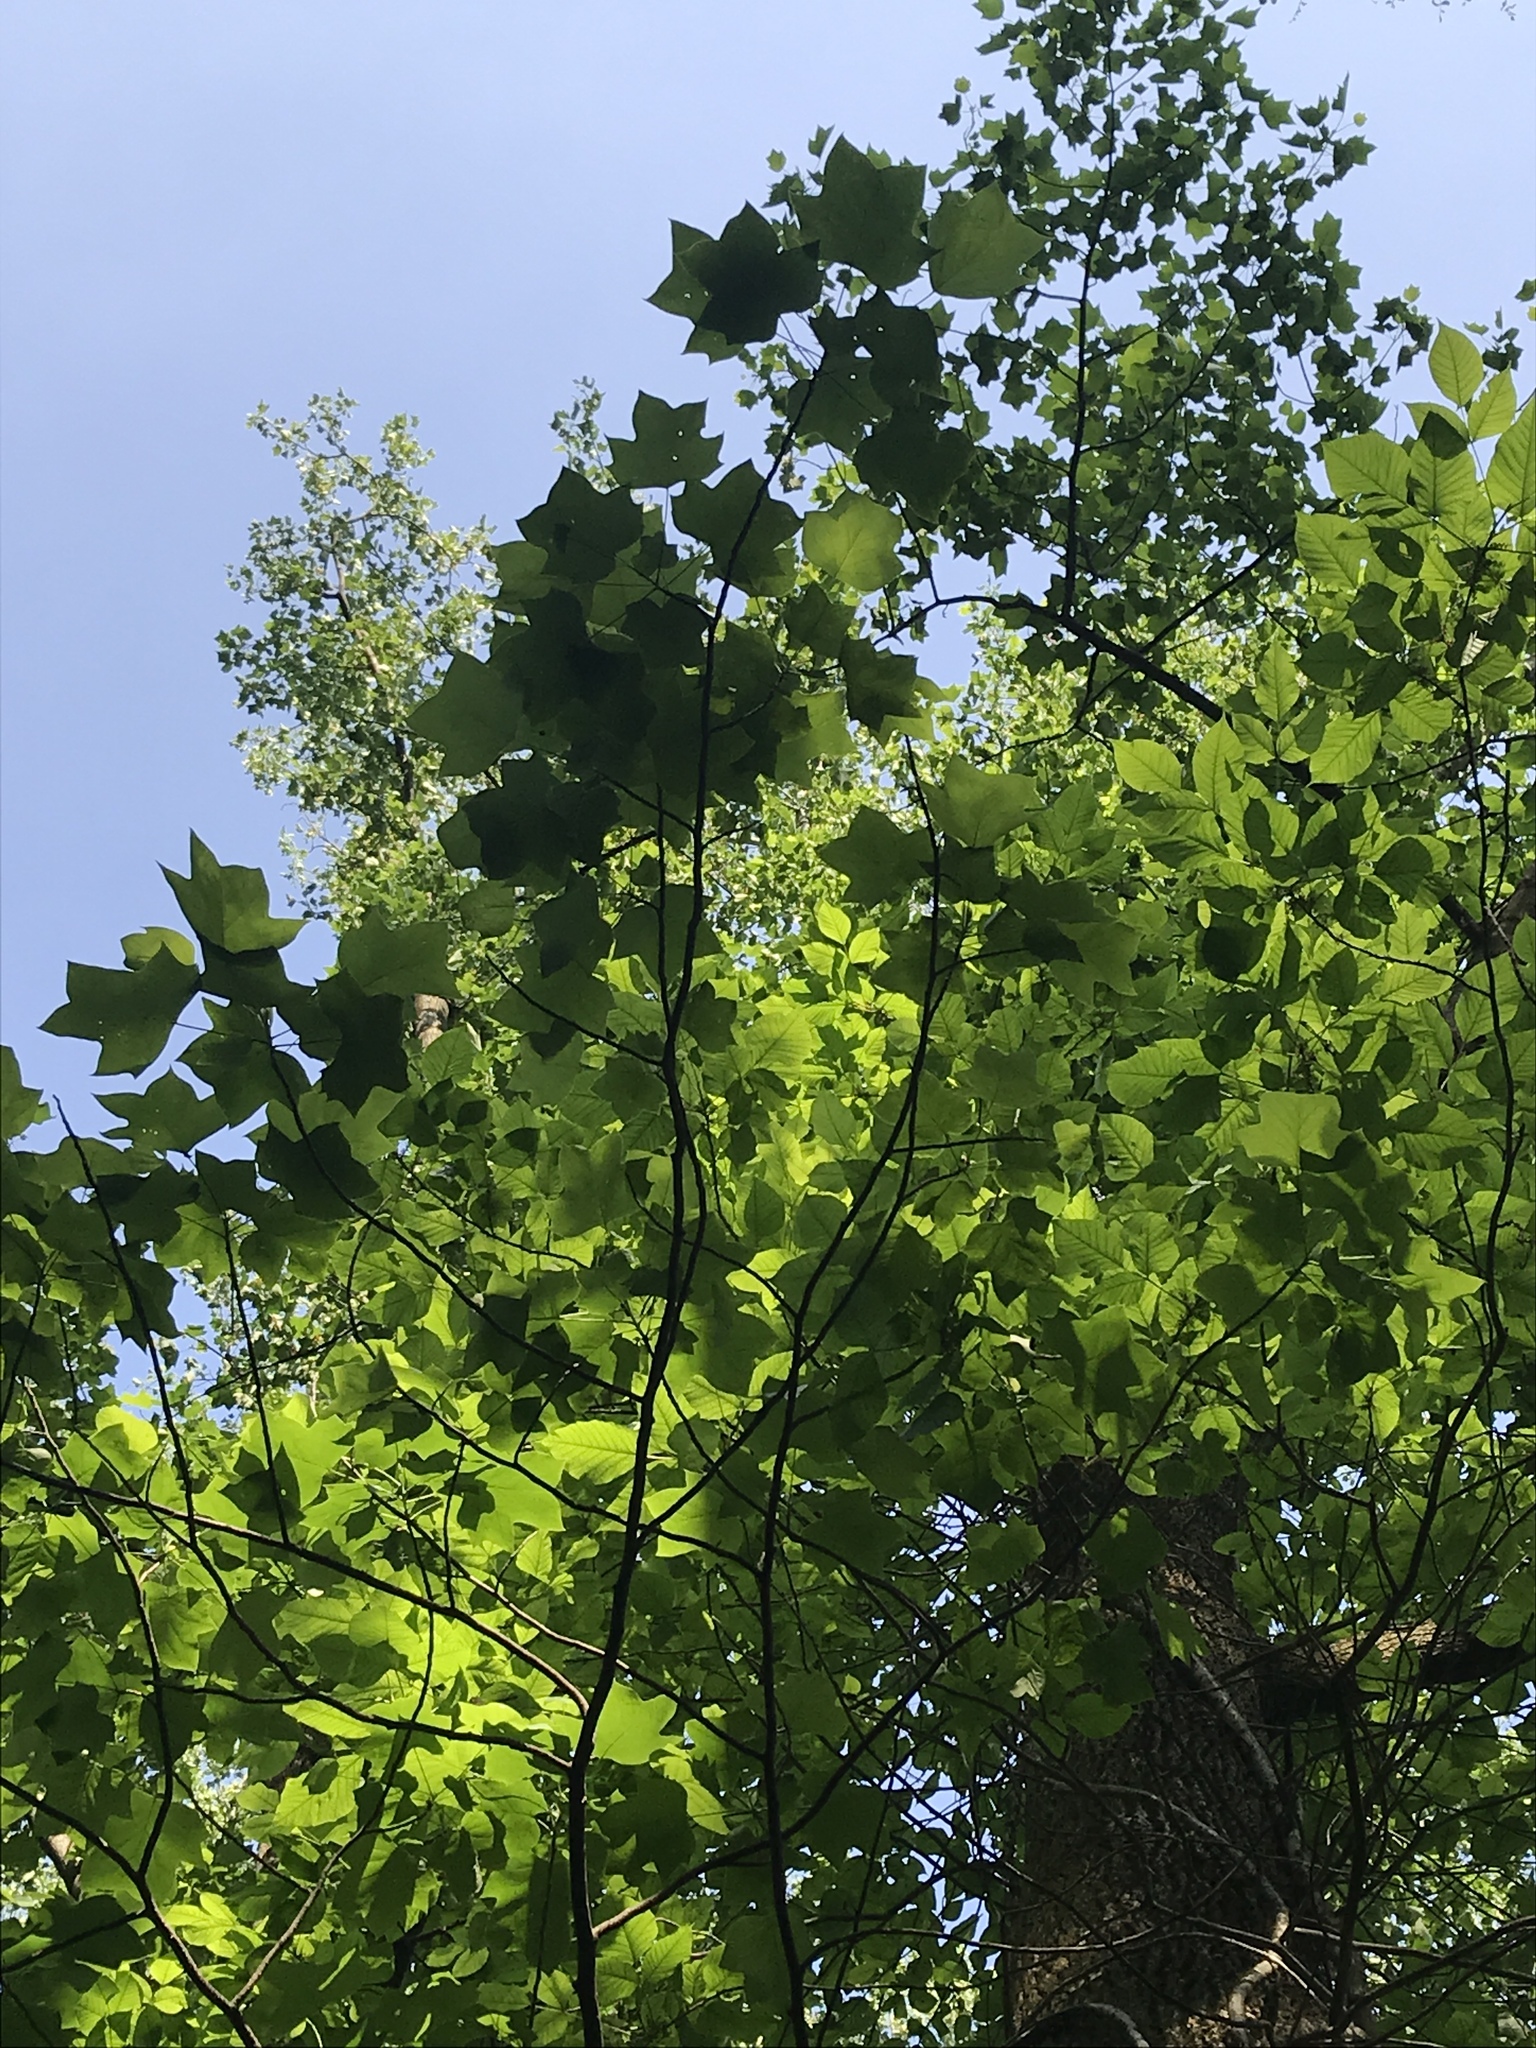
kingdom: Plantae
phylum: Tracheophyta
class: Magnoliopsida
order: Magnoliales
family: Magnoliaceae
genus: Liriodendron
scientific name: Liriodendron tulipifera
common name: Tulip tree
